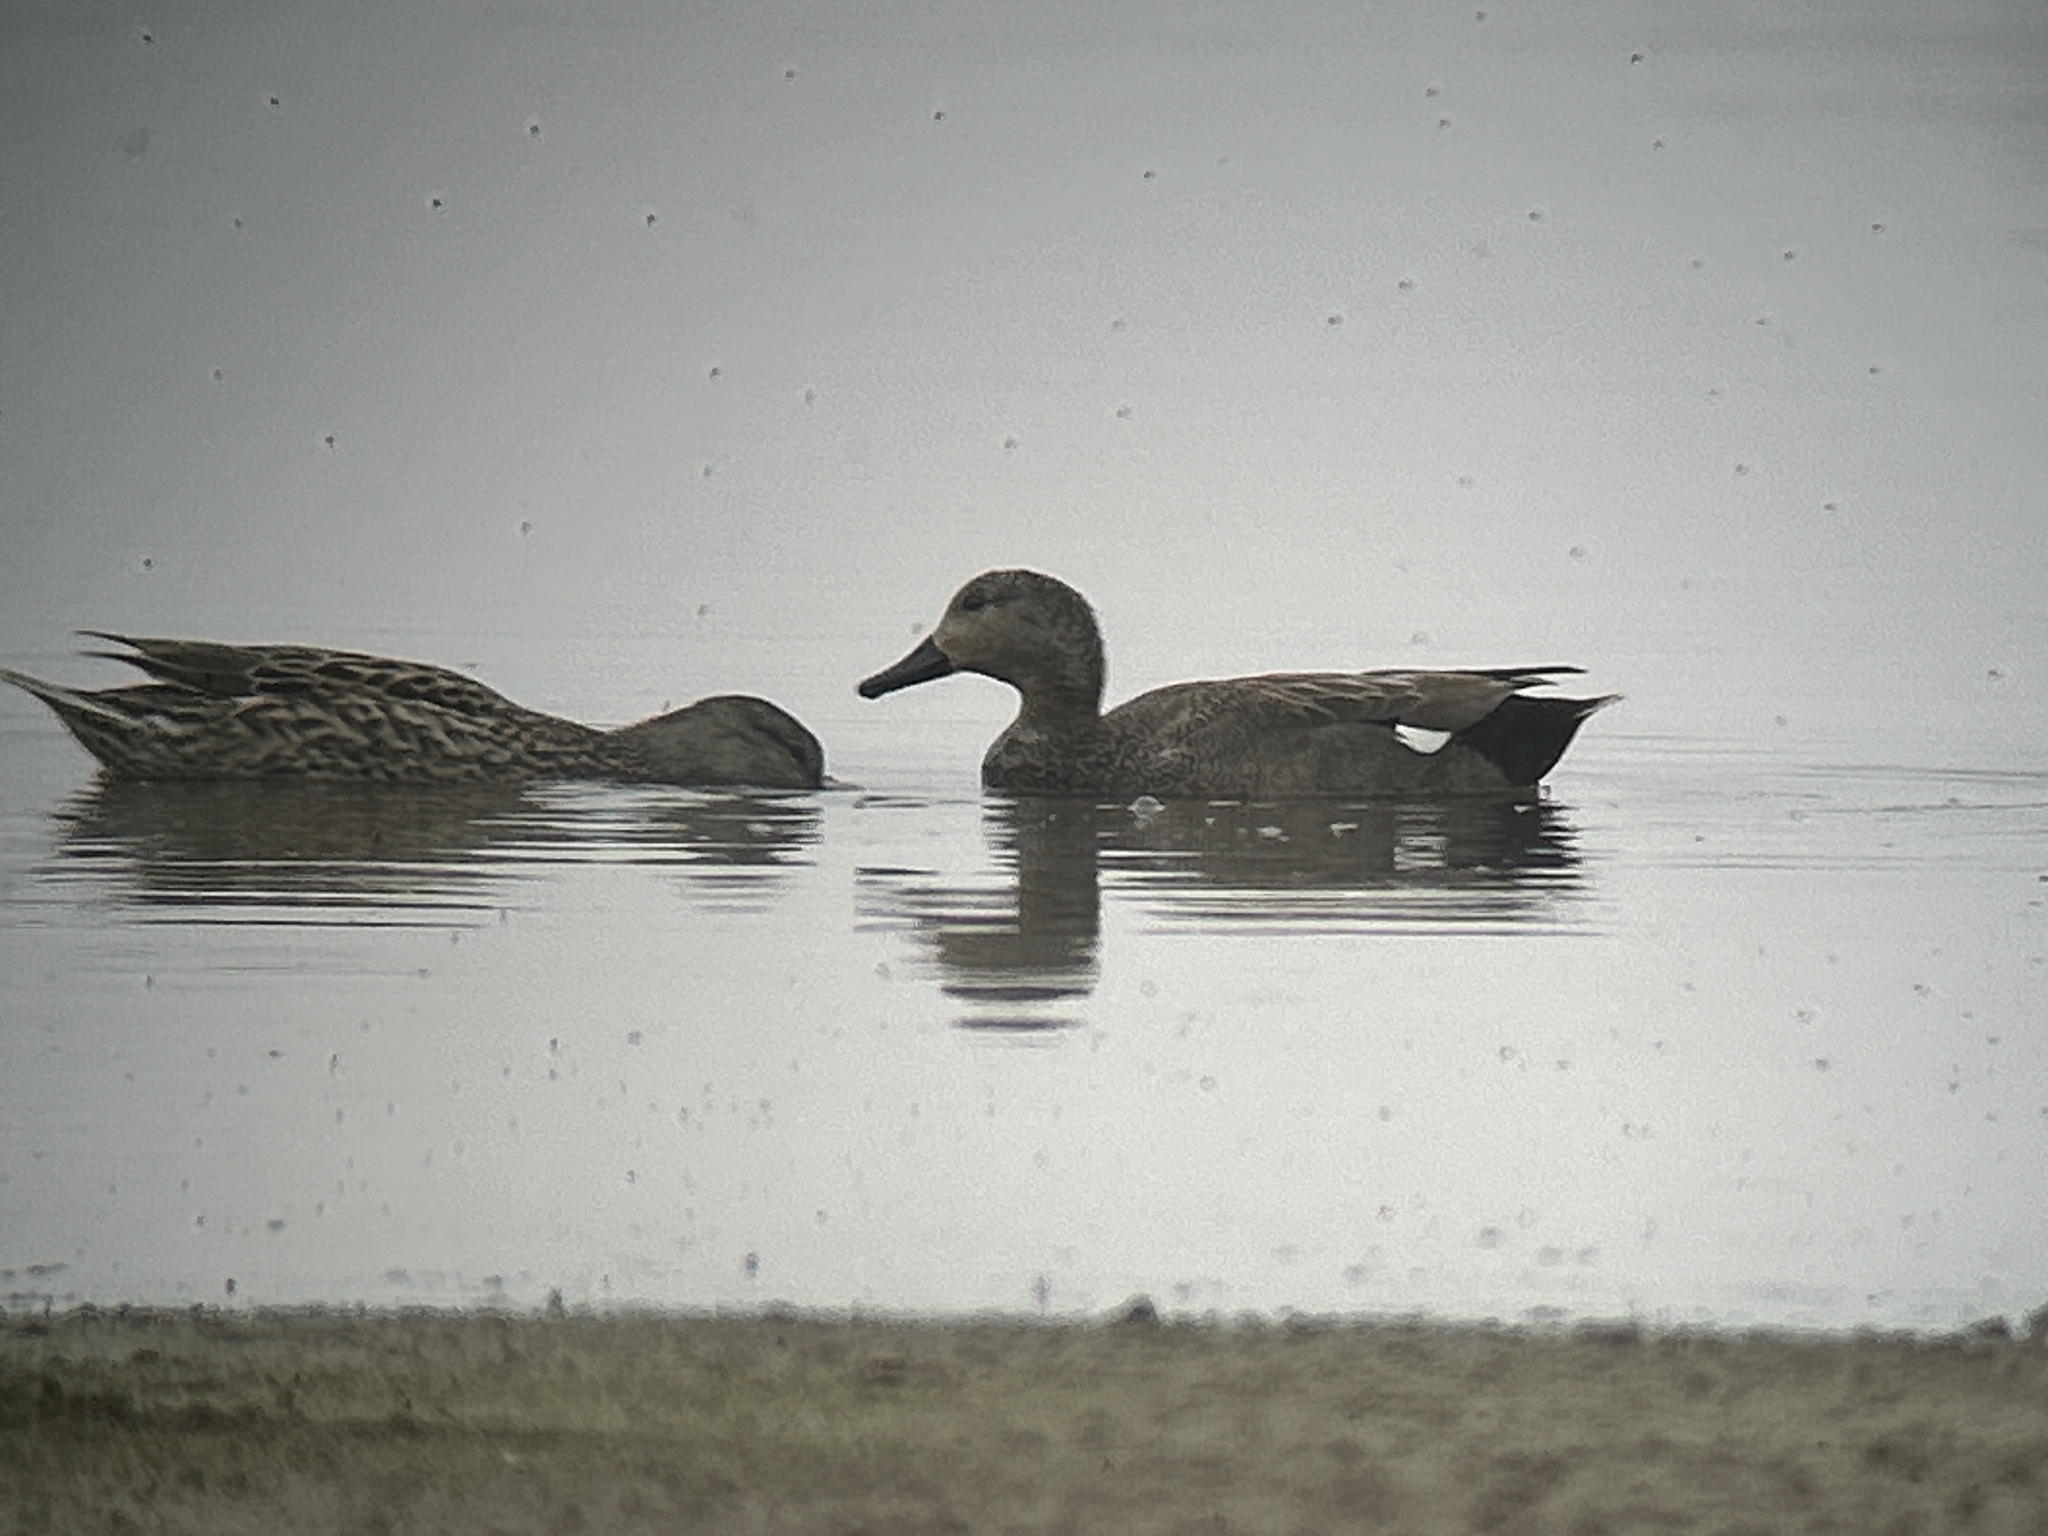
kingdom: Animalia
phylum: Chordata
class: Aves
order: Anseriformes
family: Anatidae
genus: Mareca
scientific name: Mareca strepera
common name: Gadwall
